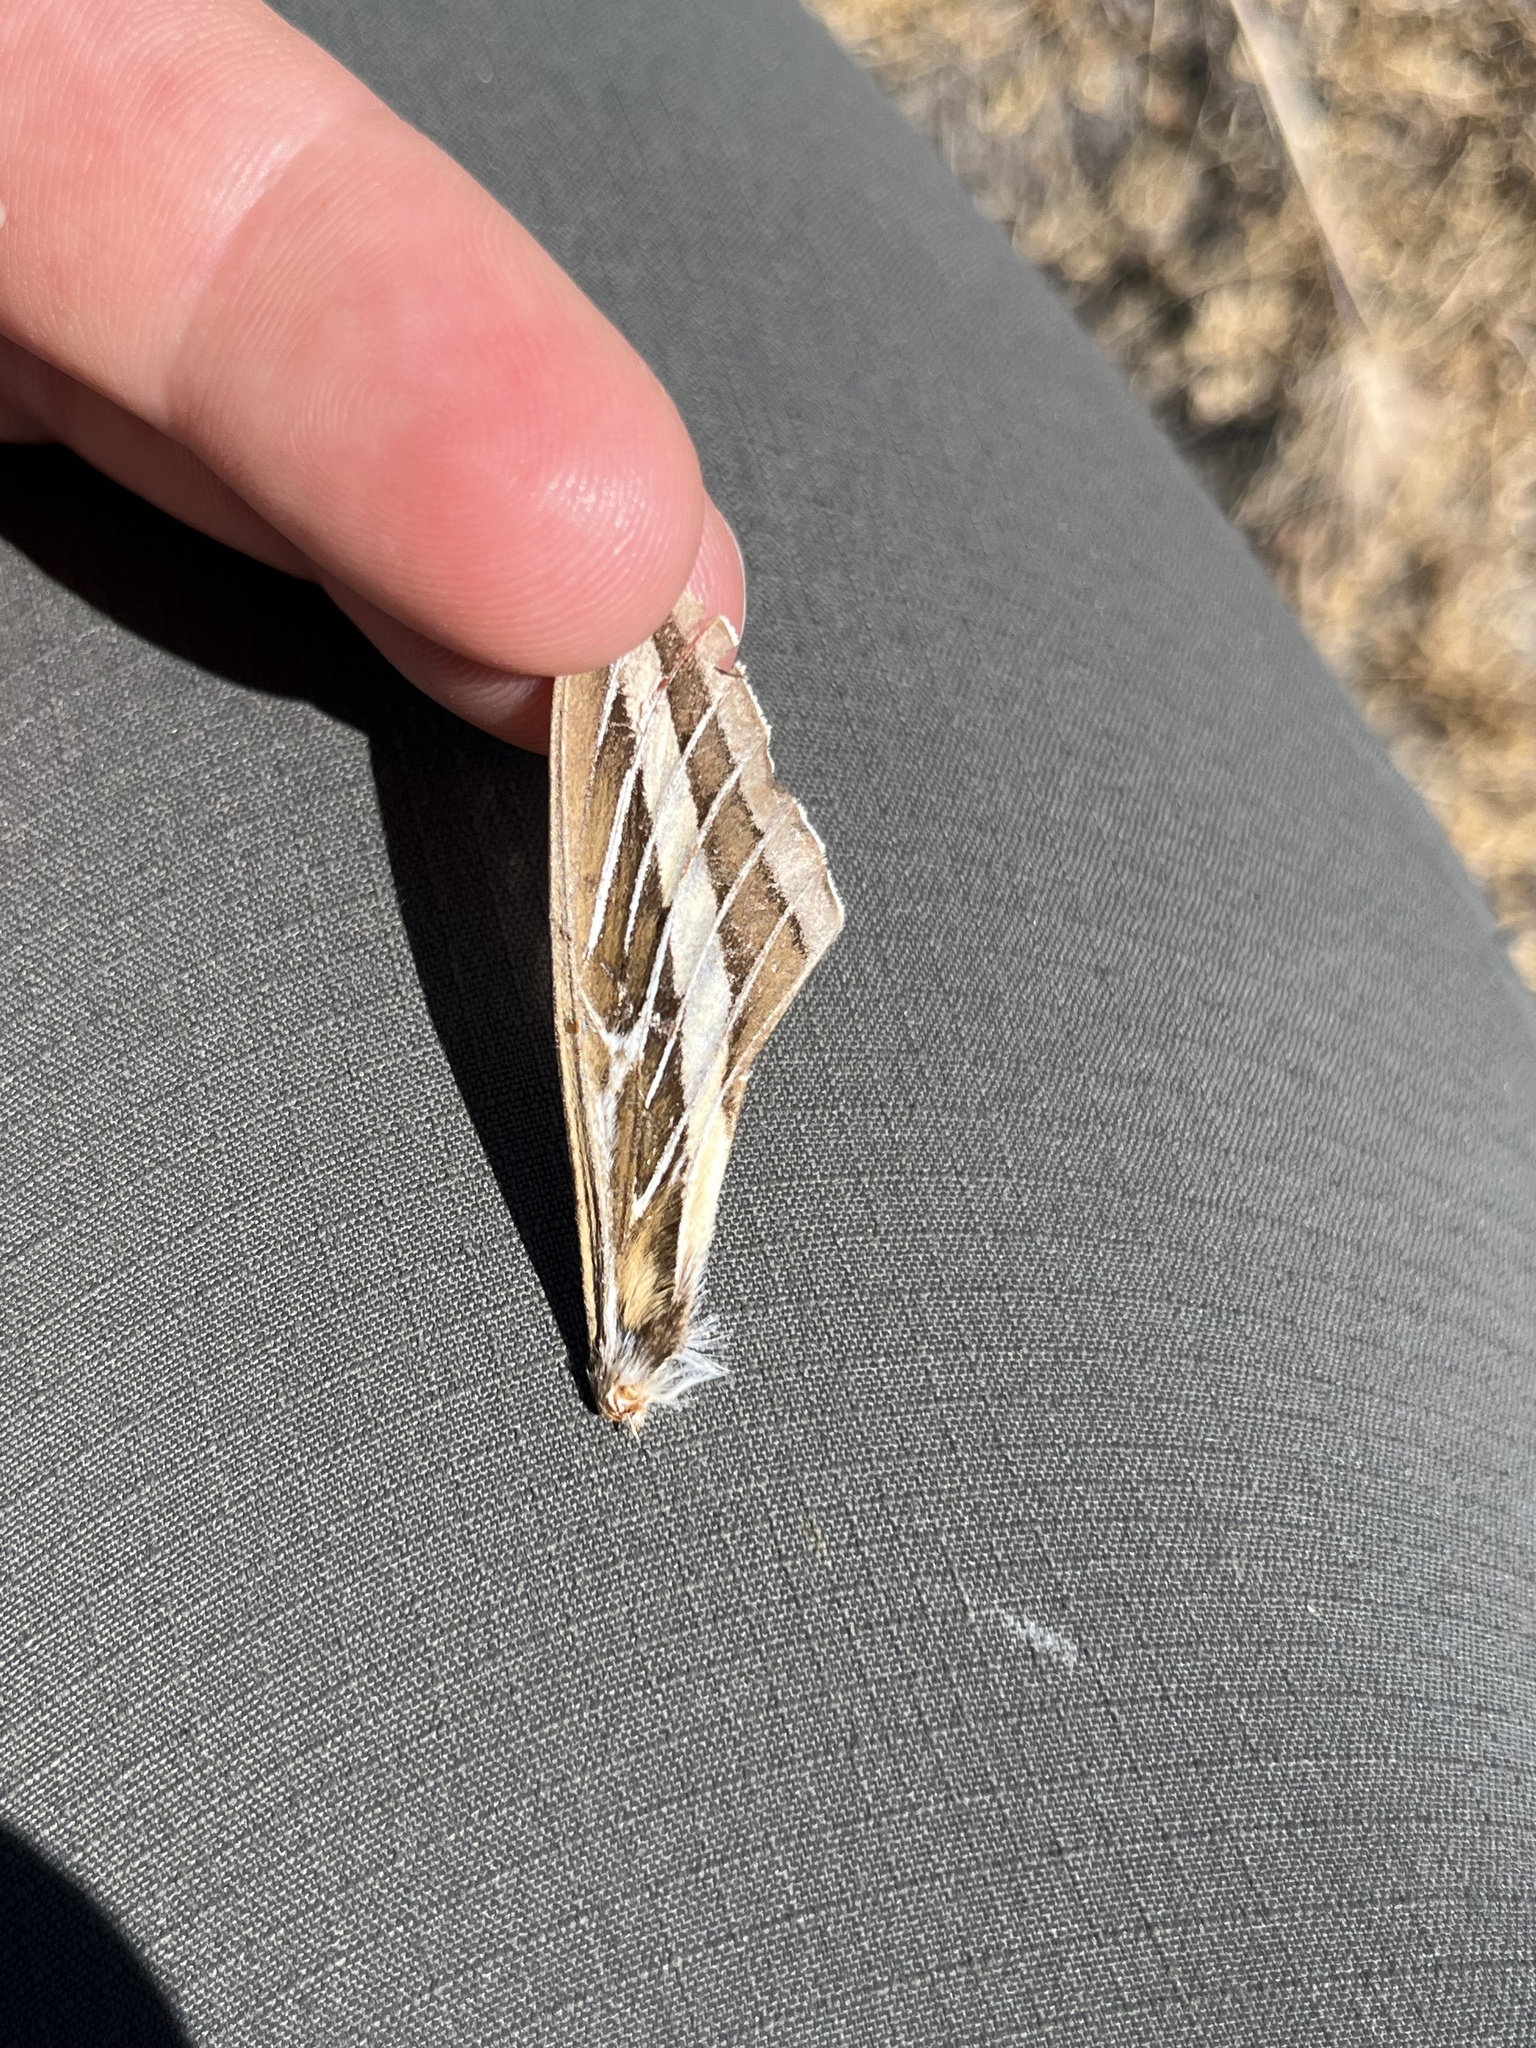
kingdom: Animalia
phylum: Arthropoda
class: Insecta
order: Lepidoptera
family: Sphingidae
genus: Hyles
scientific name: Hyles lineata
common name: White-lined sphinx
